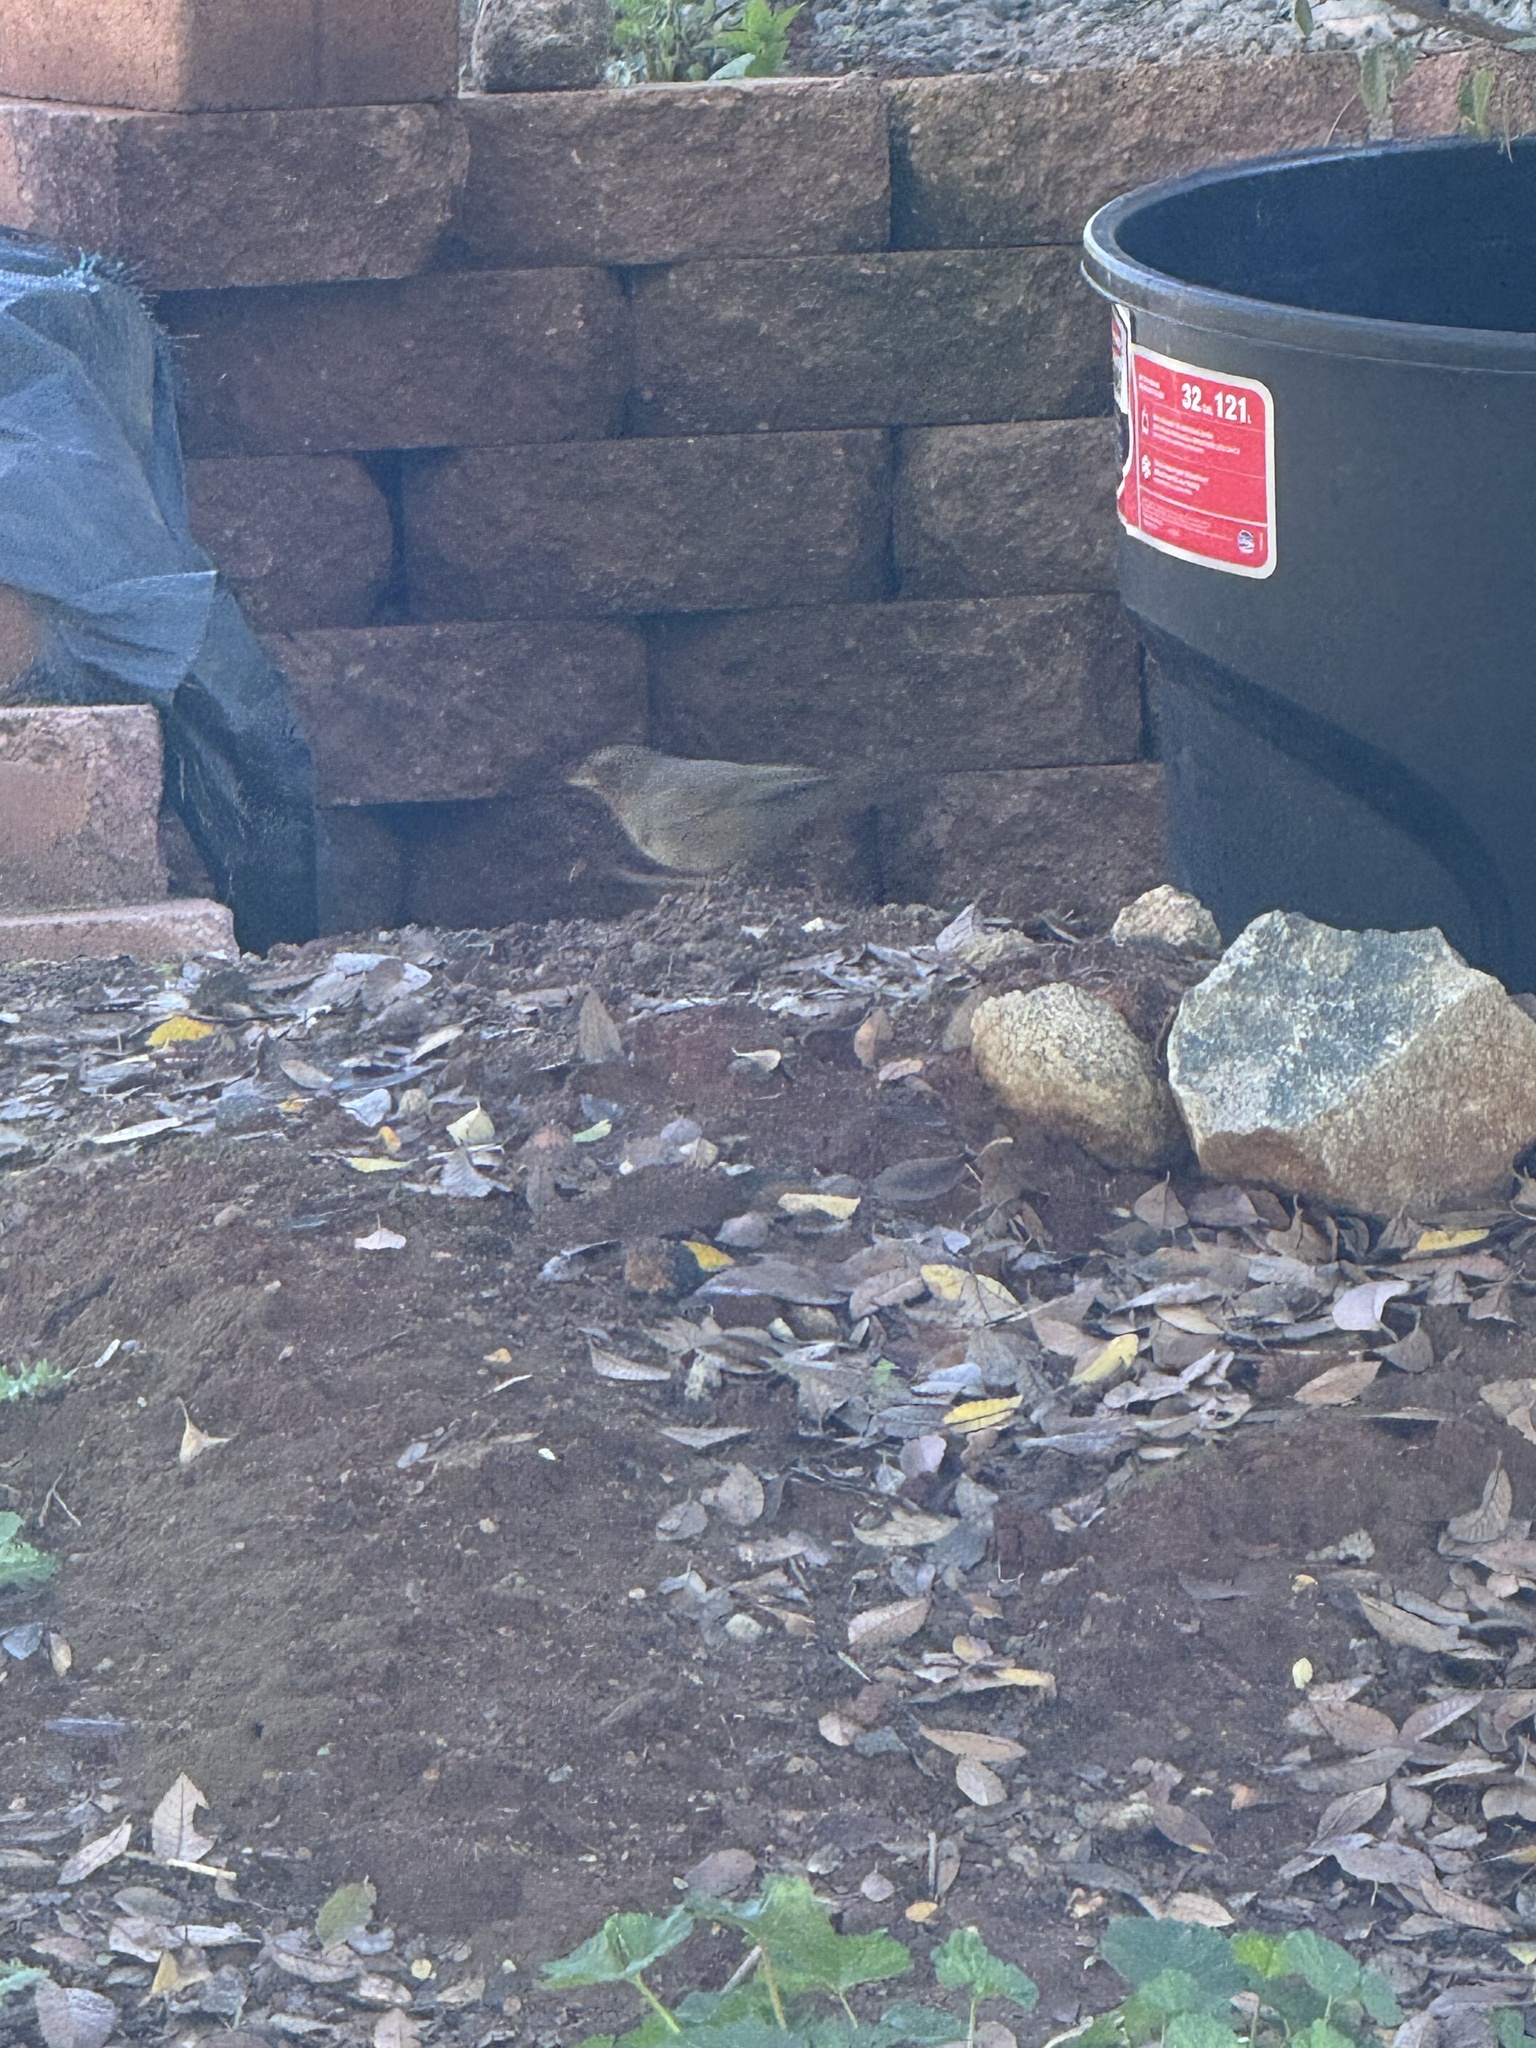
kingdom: Animalia
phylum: Chordata
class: Aves
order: Passeriformes
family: Passerellidae
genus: Melozone
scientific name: Melozone crissalis
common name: California towhee
